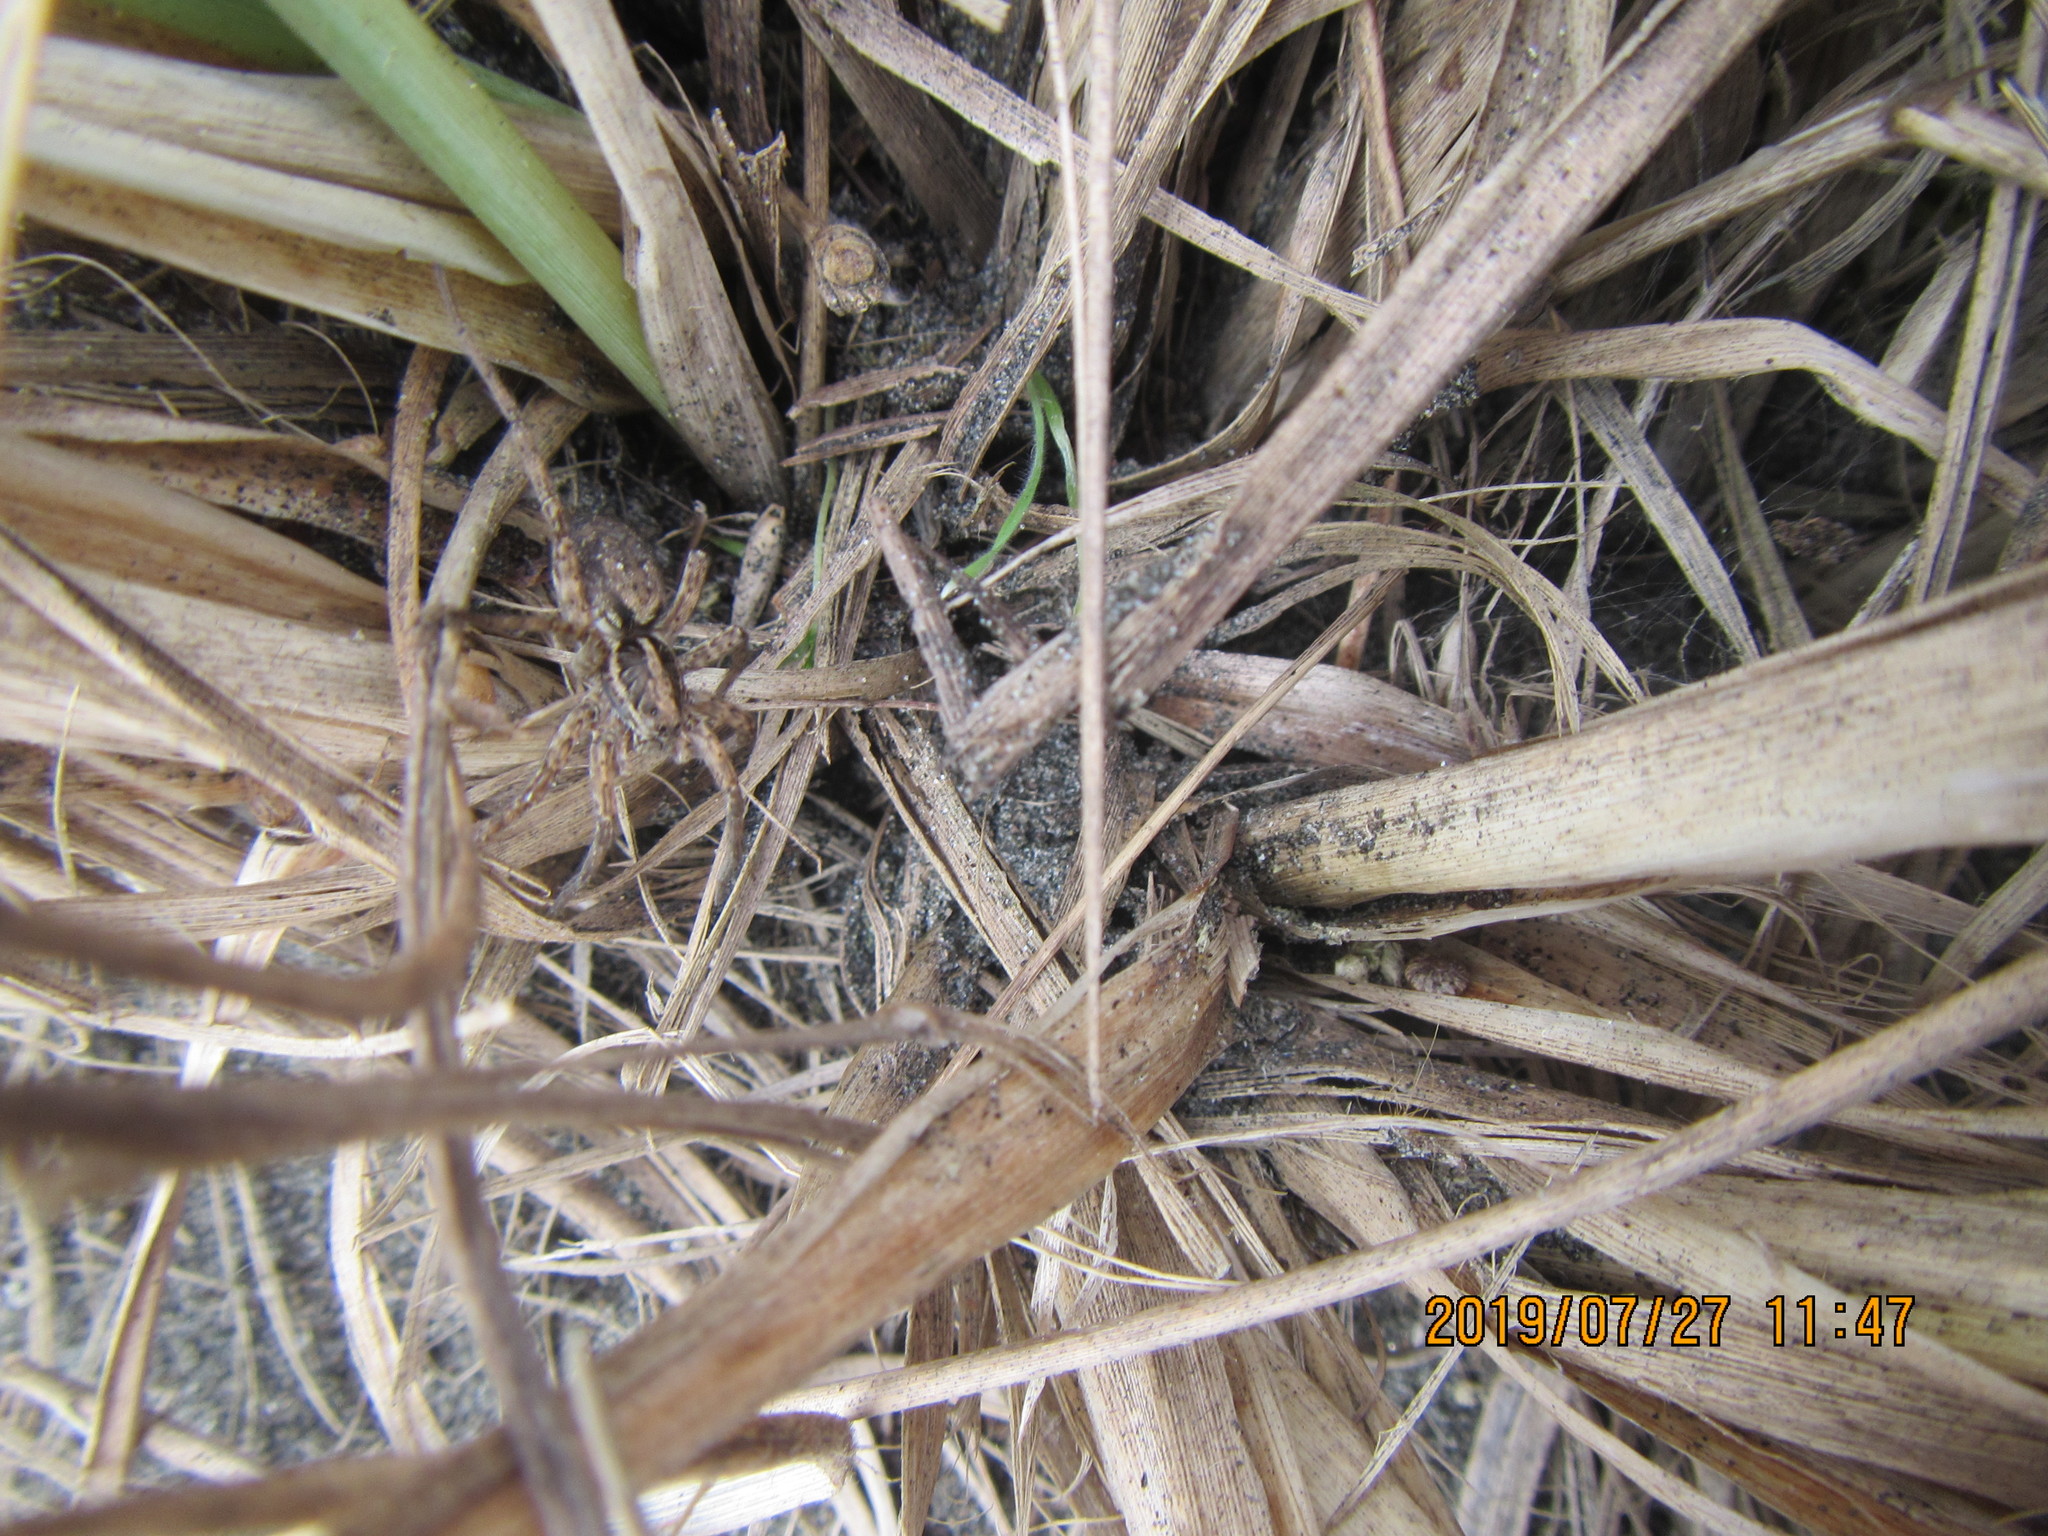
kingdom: Animalia
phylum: Arthropoda
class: Arachnida
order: Araneae
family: Lycosidae
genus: Anoteropsis
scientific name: Anoteropsis hilaris
